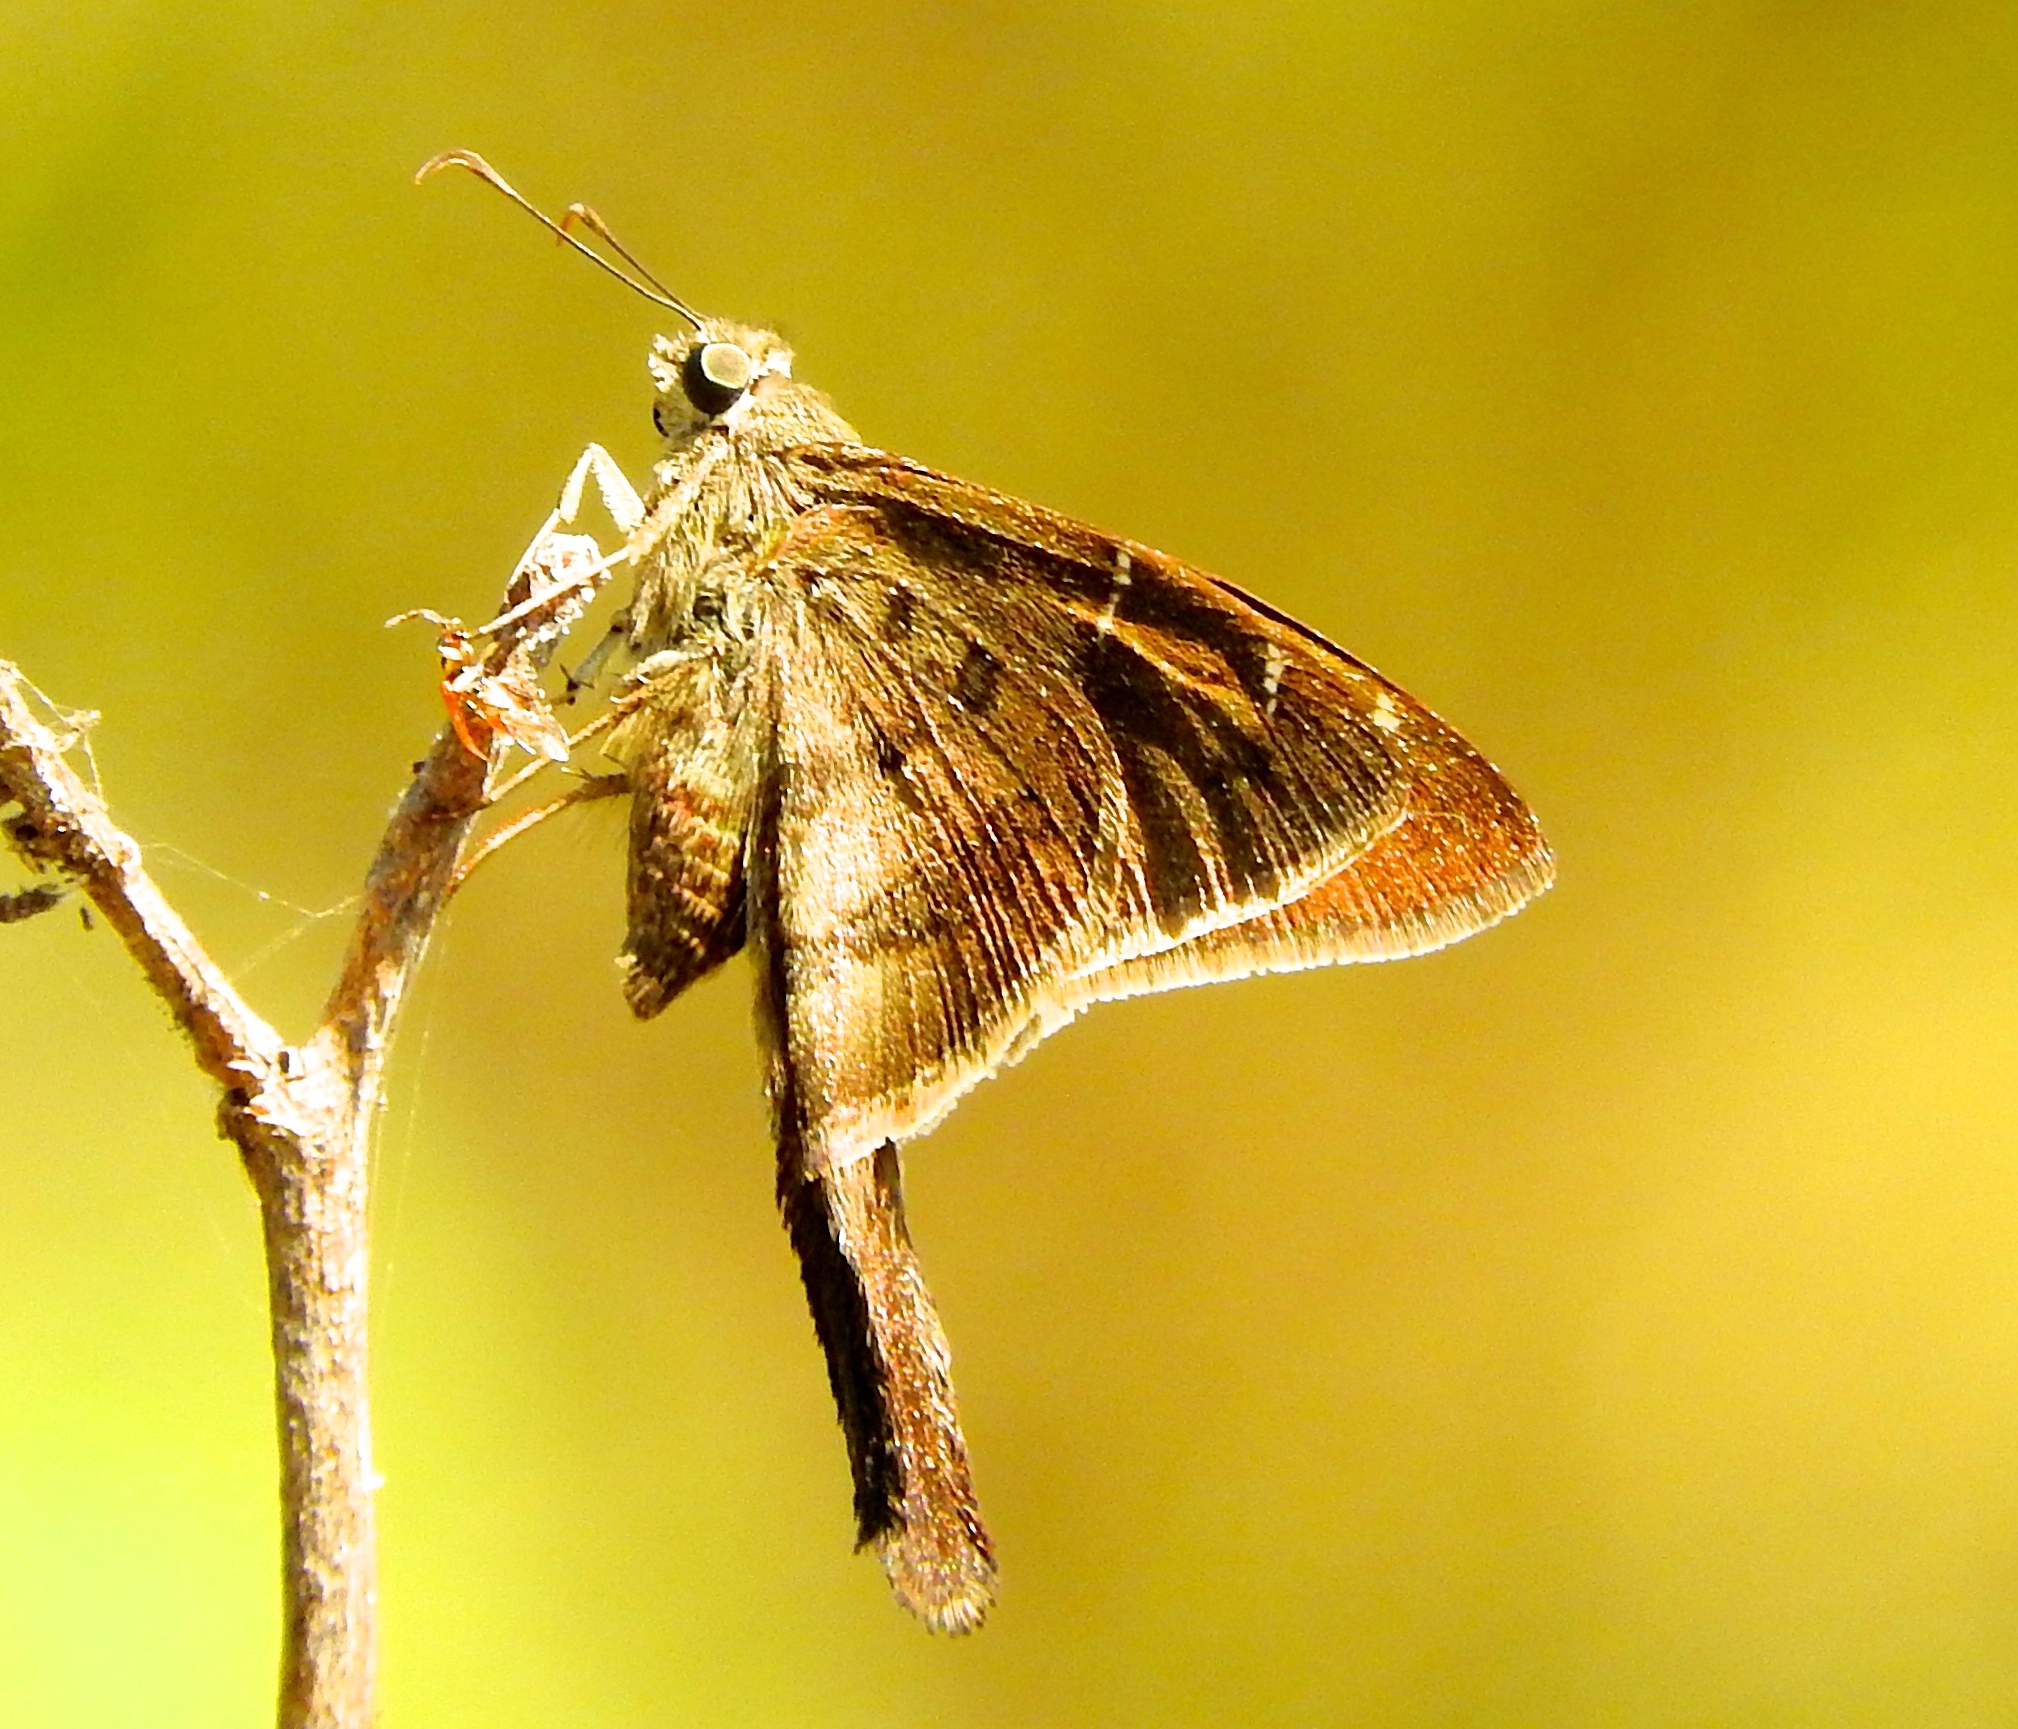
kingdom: Animalia
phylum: Arthropoda
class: Insecta
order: Lepidoptera
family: Hesperiidae
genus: Urbanus
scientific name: Urbanus procne
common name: Brown longtail
